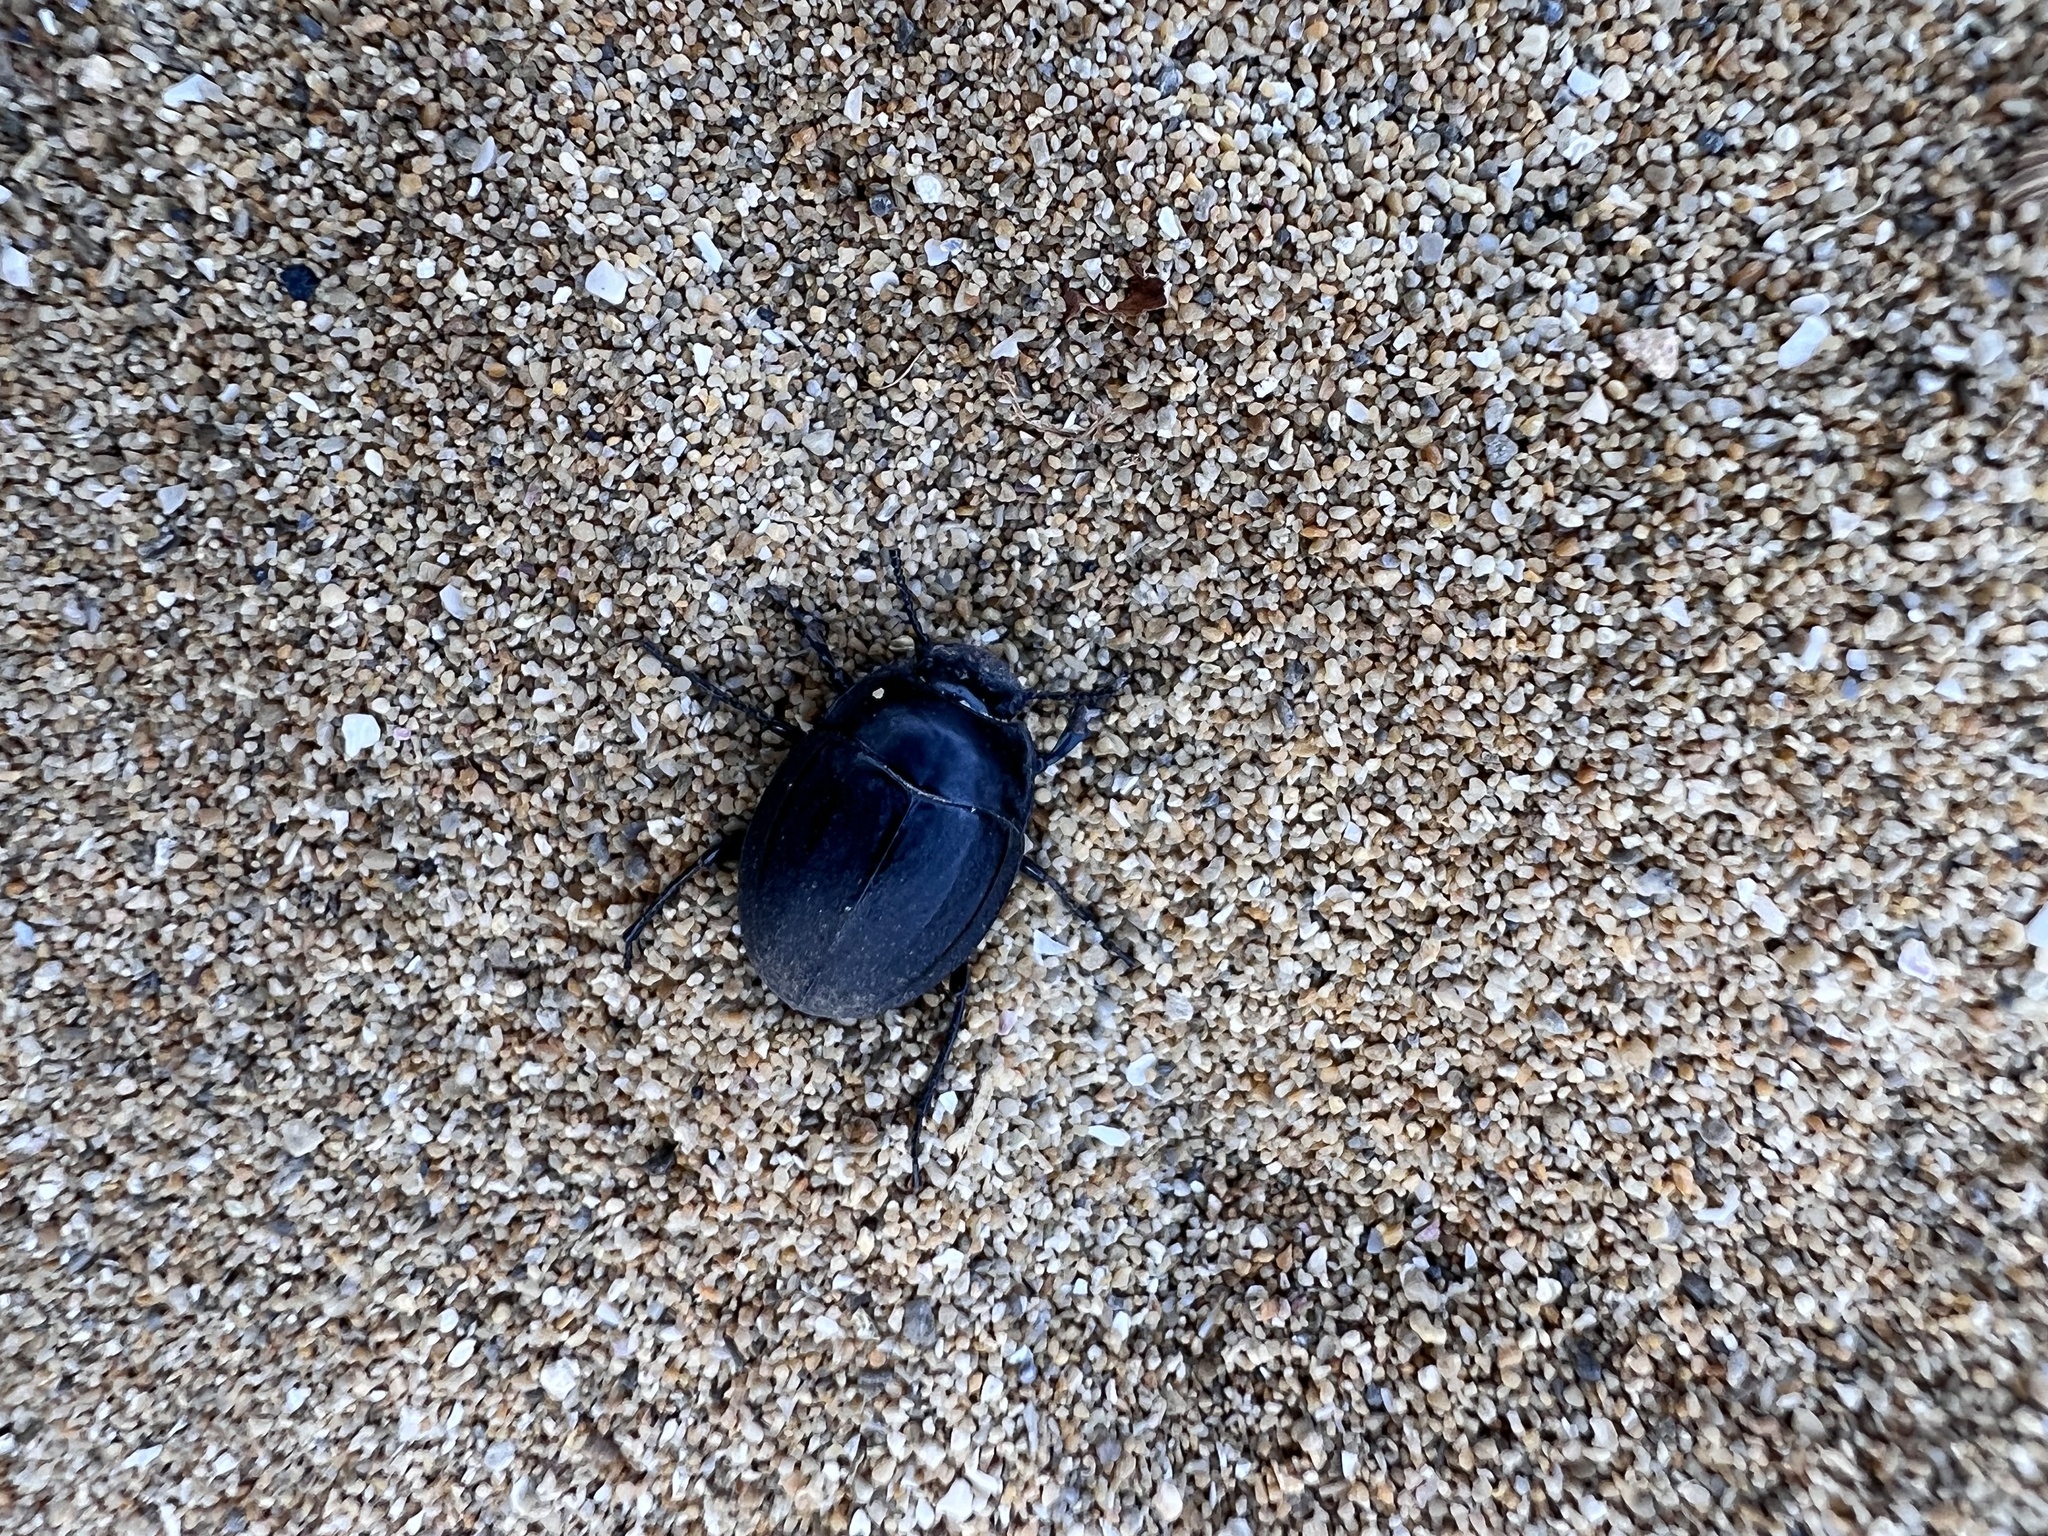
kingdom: Animalia
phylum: Arthropoda
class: Insecta
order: Coleoptera
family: Tenebrionidae
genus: Erodius
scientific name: Erodius siculus
